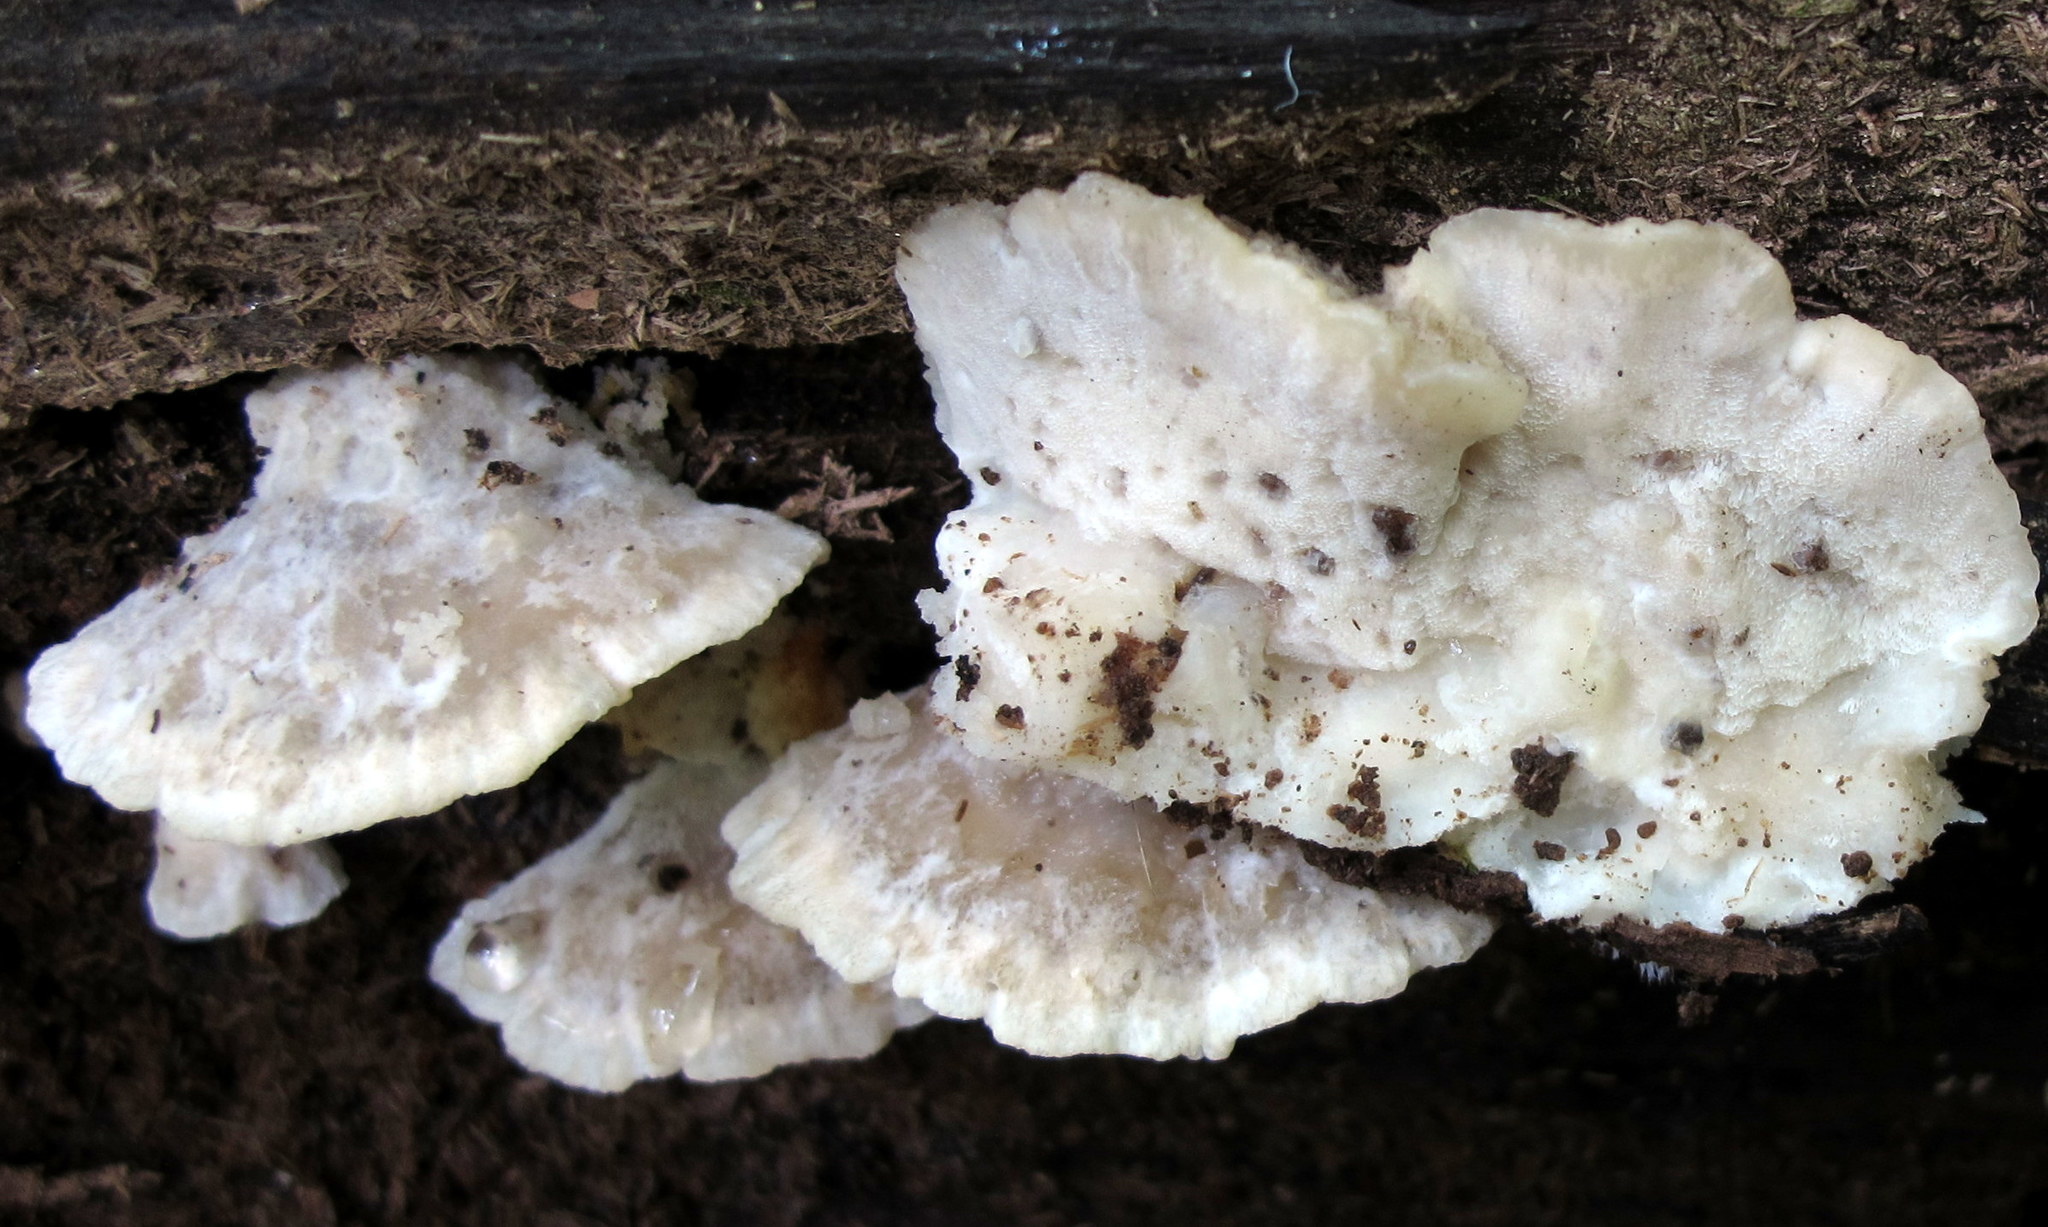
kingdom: Fungi
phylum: Basidiomycota
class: Agaricomycetes
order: Polyporales
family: Incrustoporiaceae
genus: Tyromyces
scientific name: Tyromyces chioneus
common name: White cheese polypore
